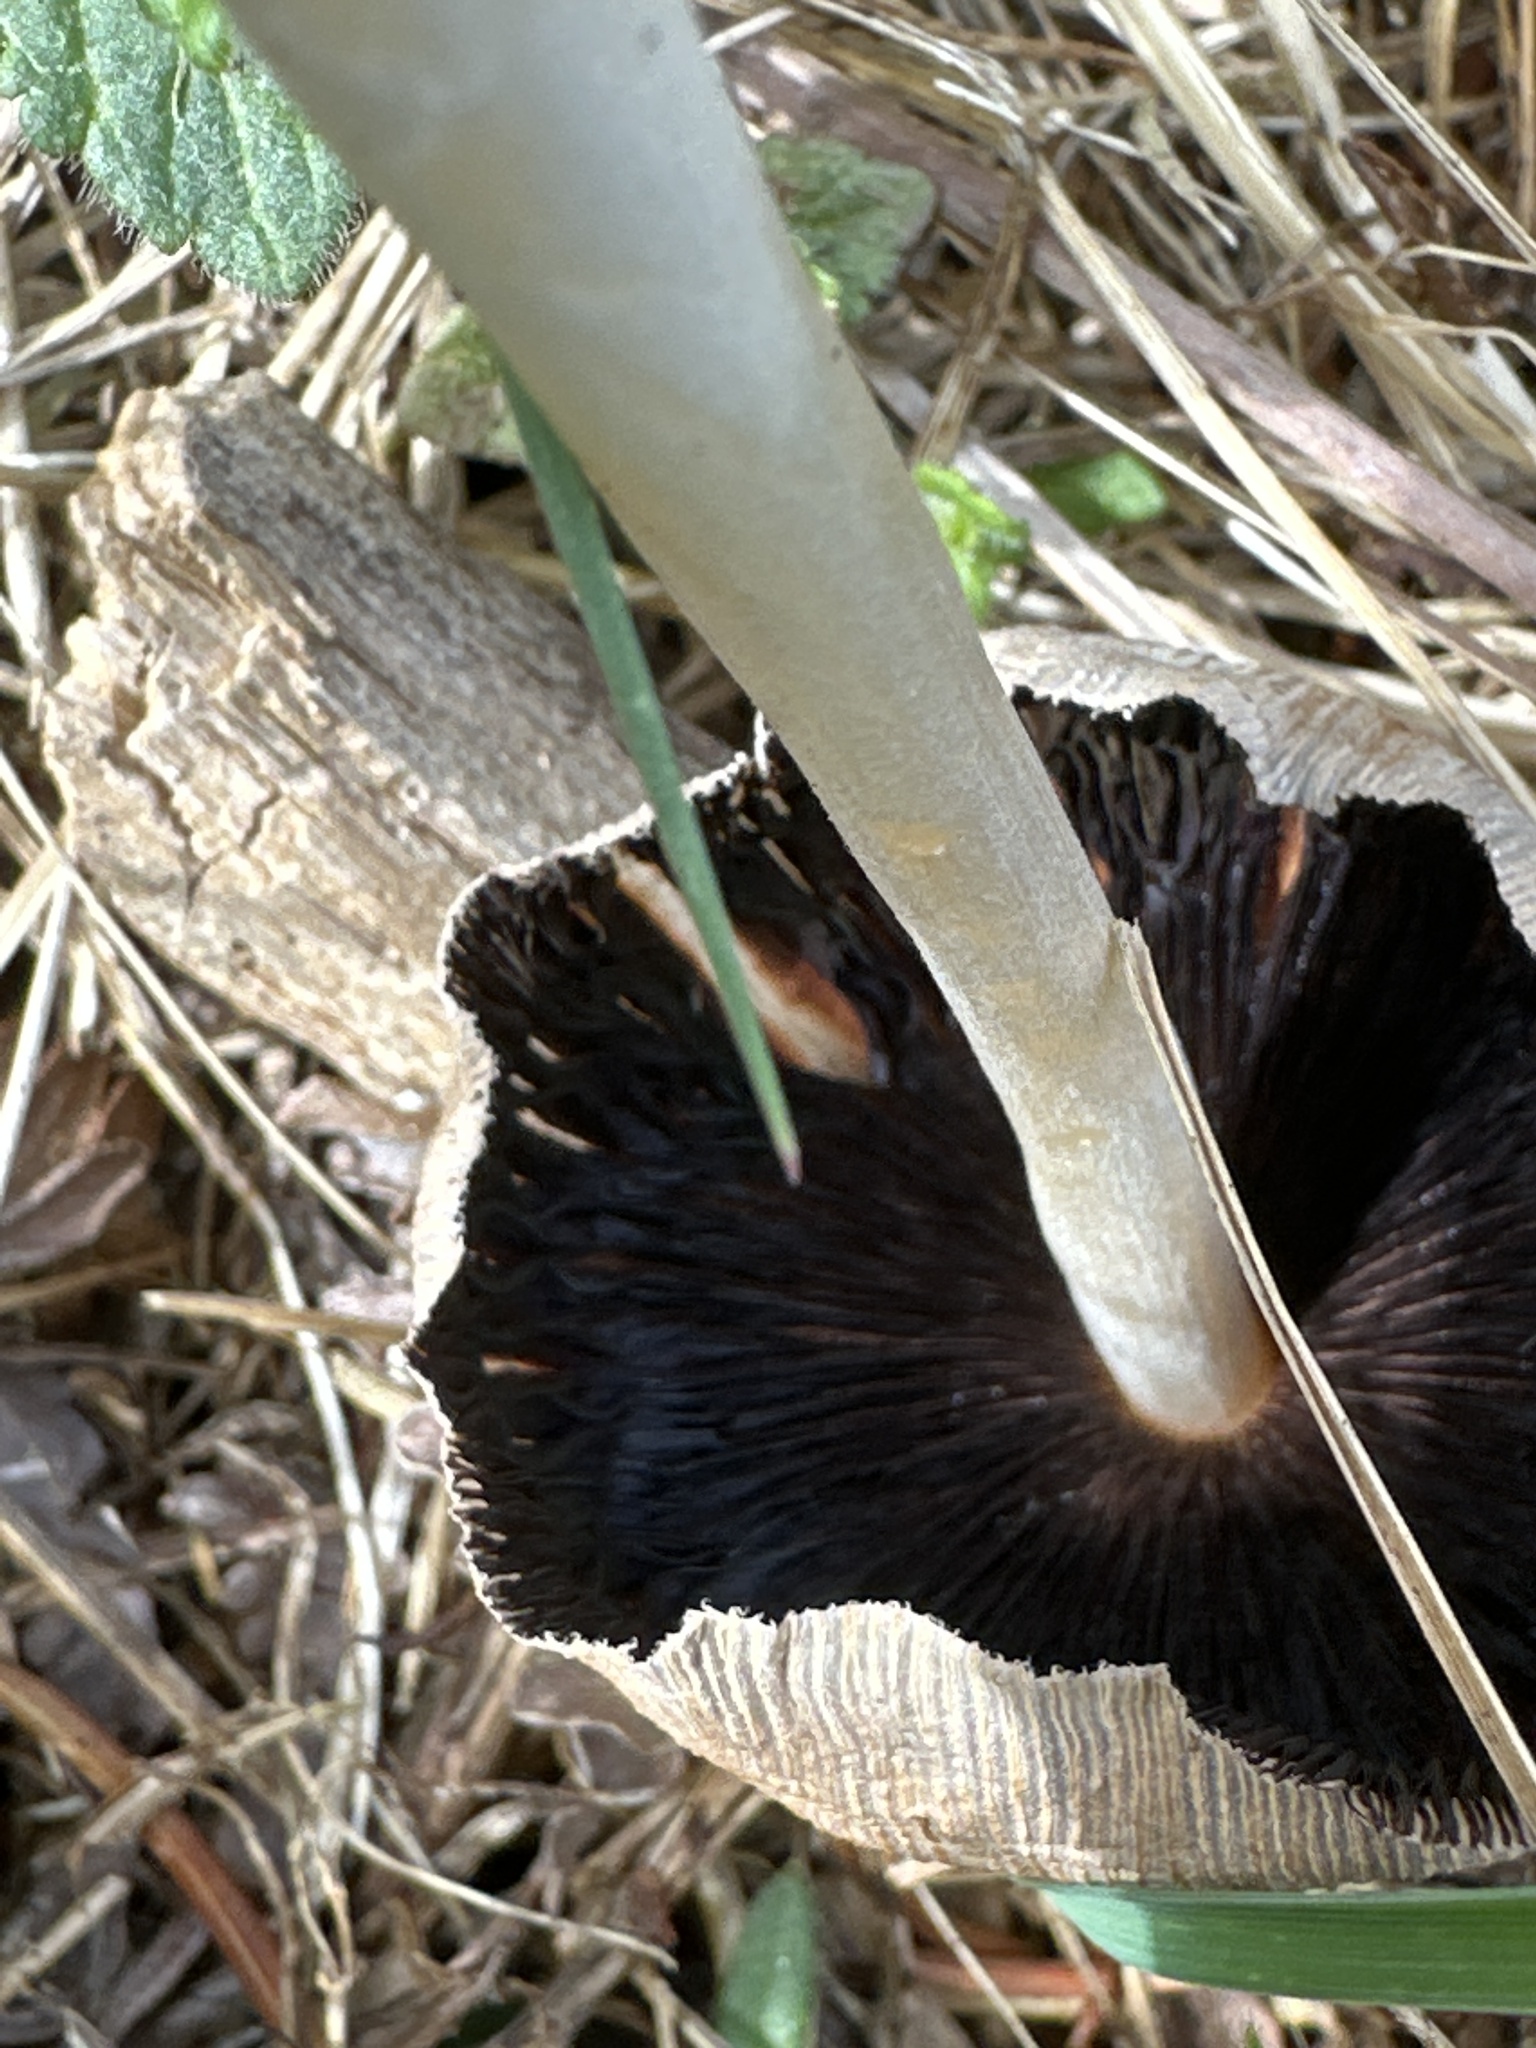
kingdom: Fungi
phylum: Basidiomycota
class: Agaricomycetes
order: Agaricales
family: Bolbitiaceae
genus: Bolbitius
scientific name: Bolbitius titubans
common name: Yellow fieldcap
